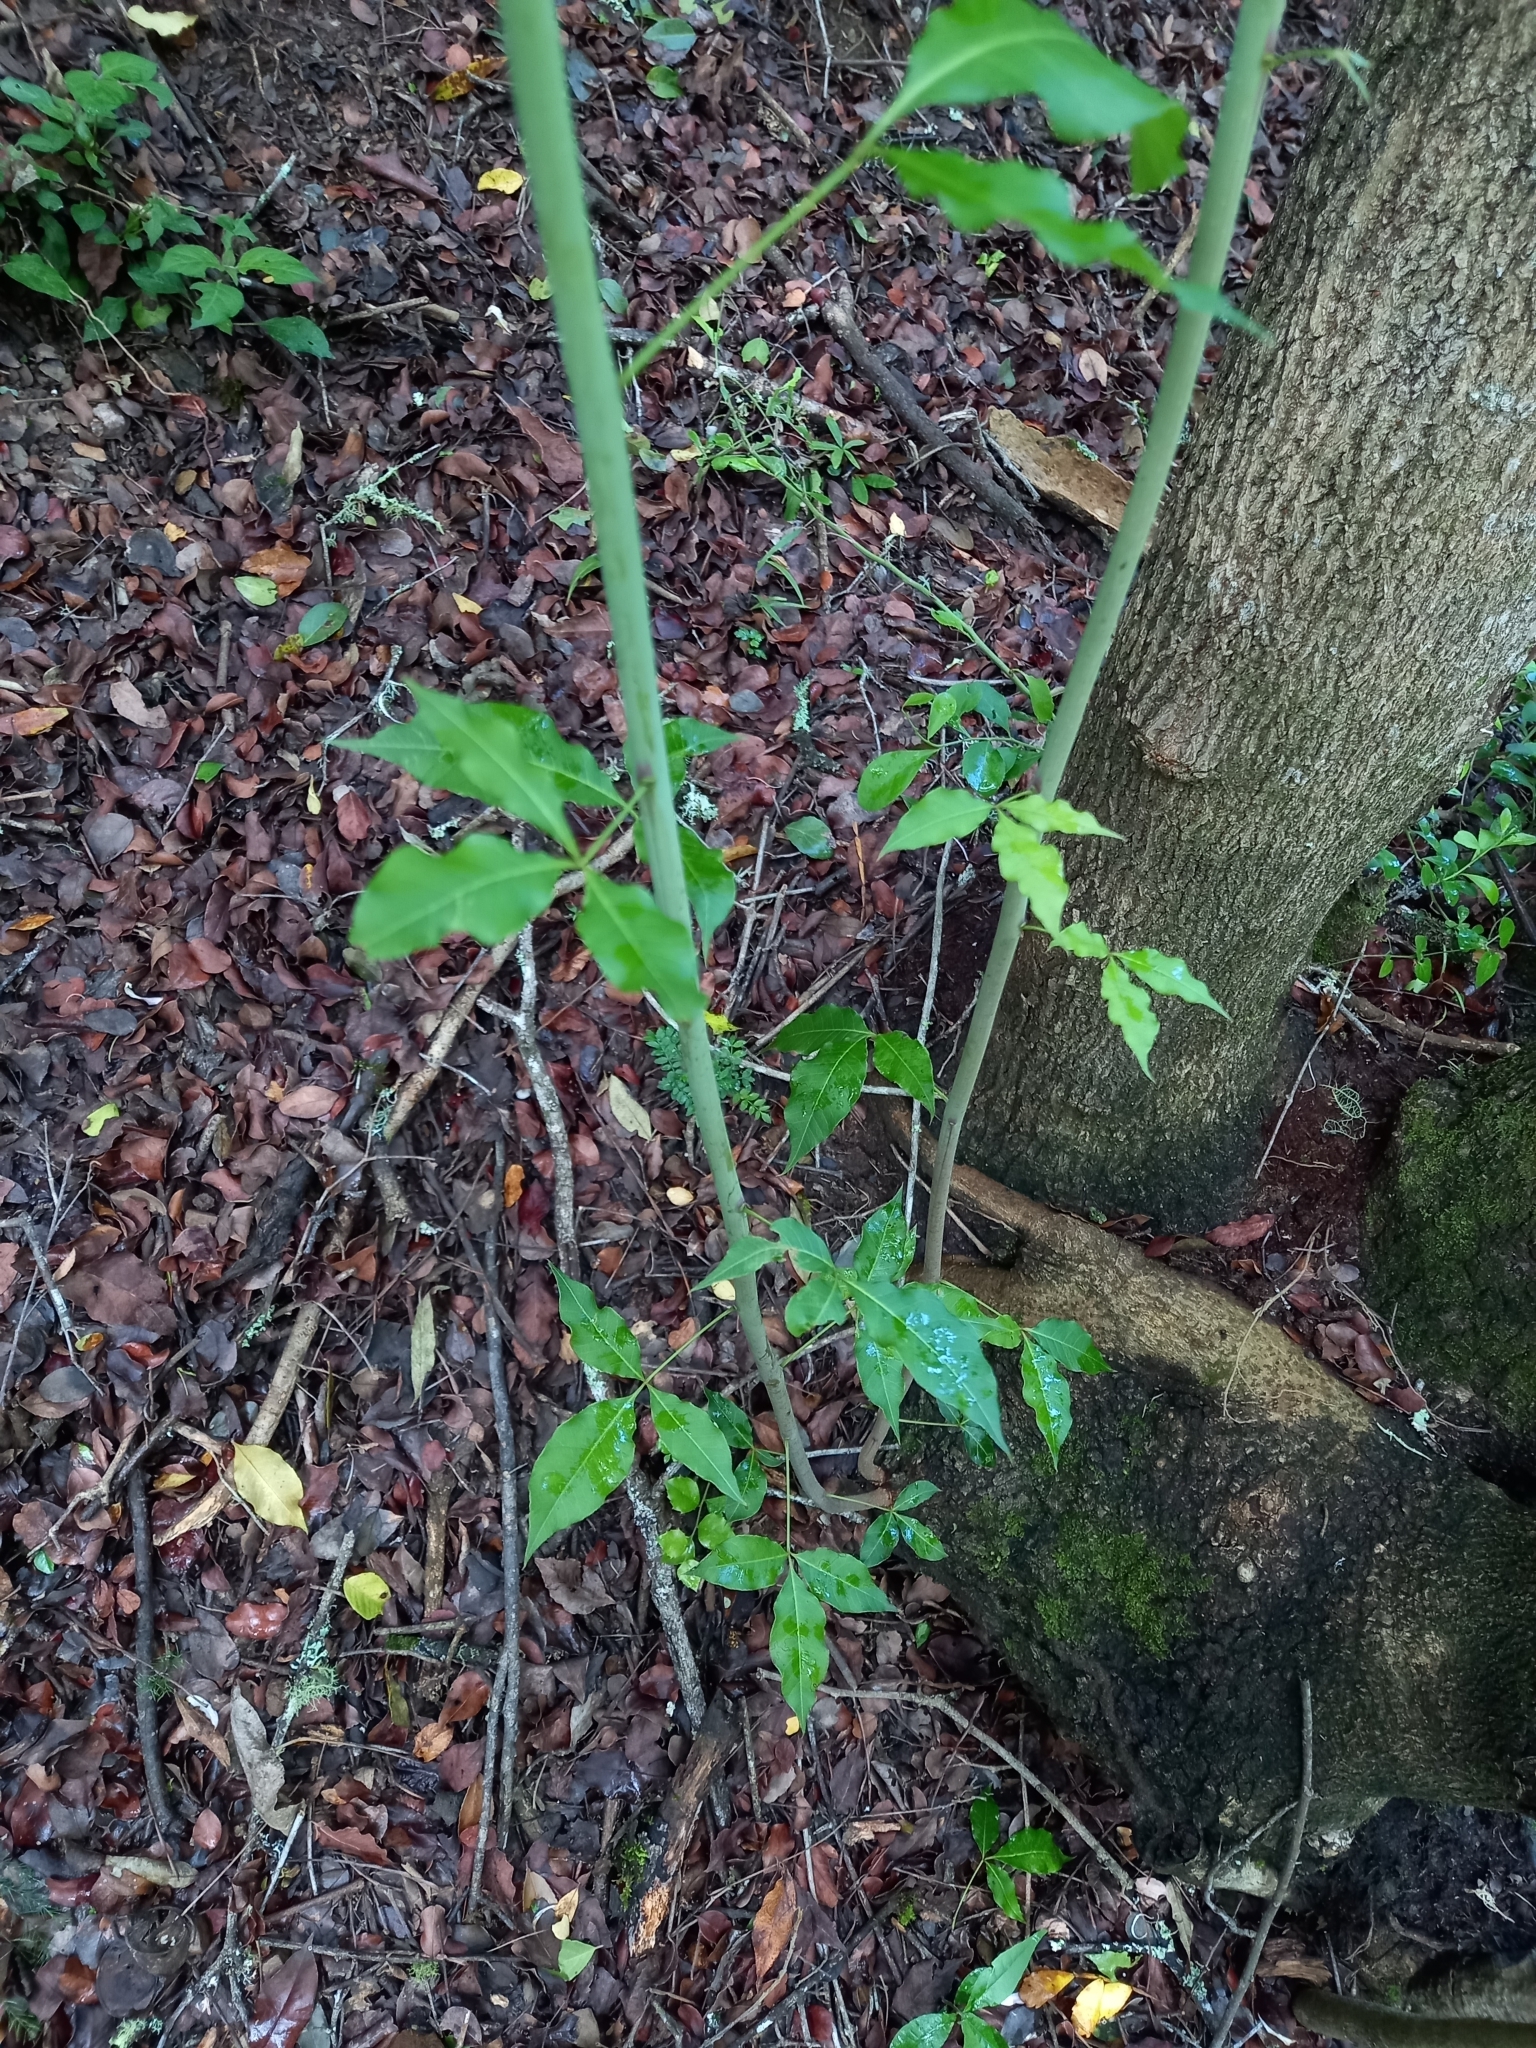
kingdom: Plantae
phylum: Tracheophyta
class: Magnoliopsida
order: Sapindales
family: Anacardiaceae
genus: Searsia
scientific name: Searsia chirindensis
